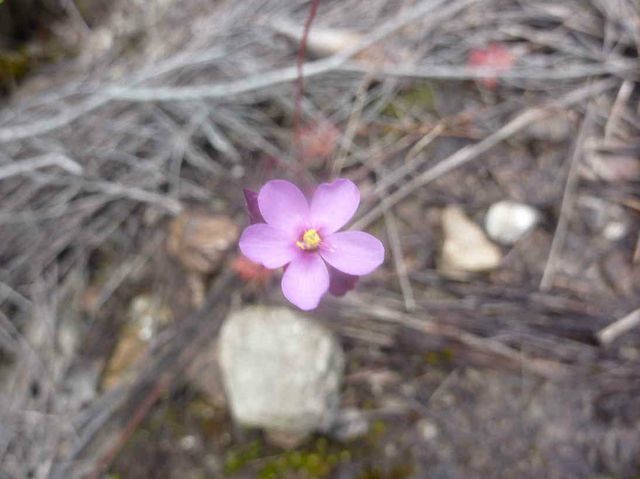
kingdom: Plantae
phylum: Tracheophyta
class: Magnoliopsida
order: Caryophyllales
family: Droseraceae
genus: Drosera
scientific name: Drosera aliciae
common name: Alice sundew
